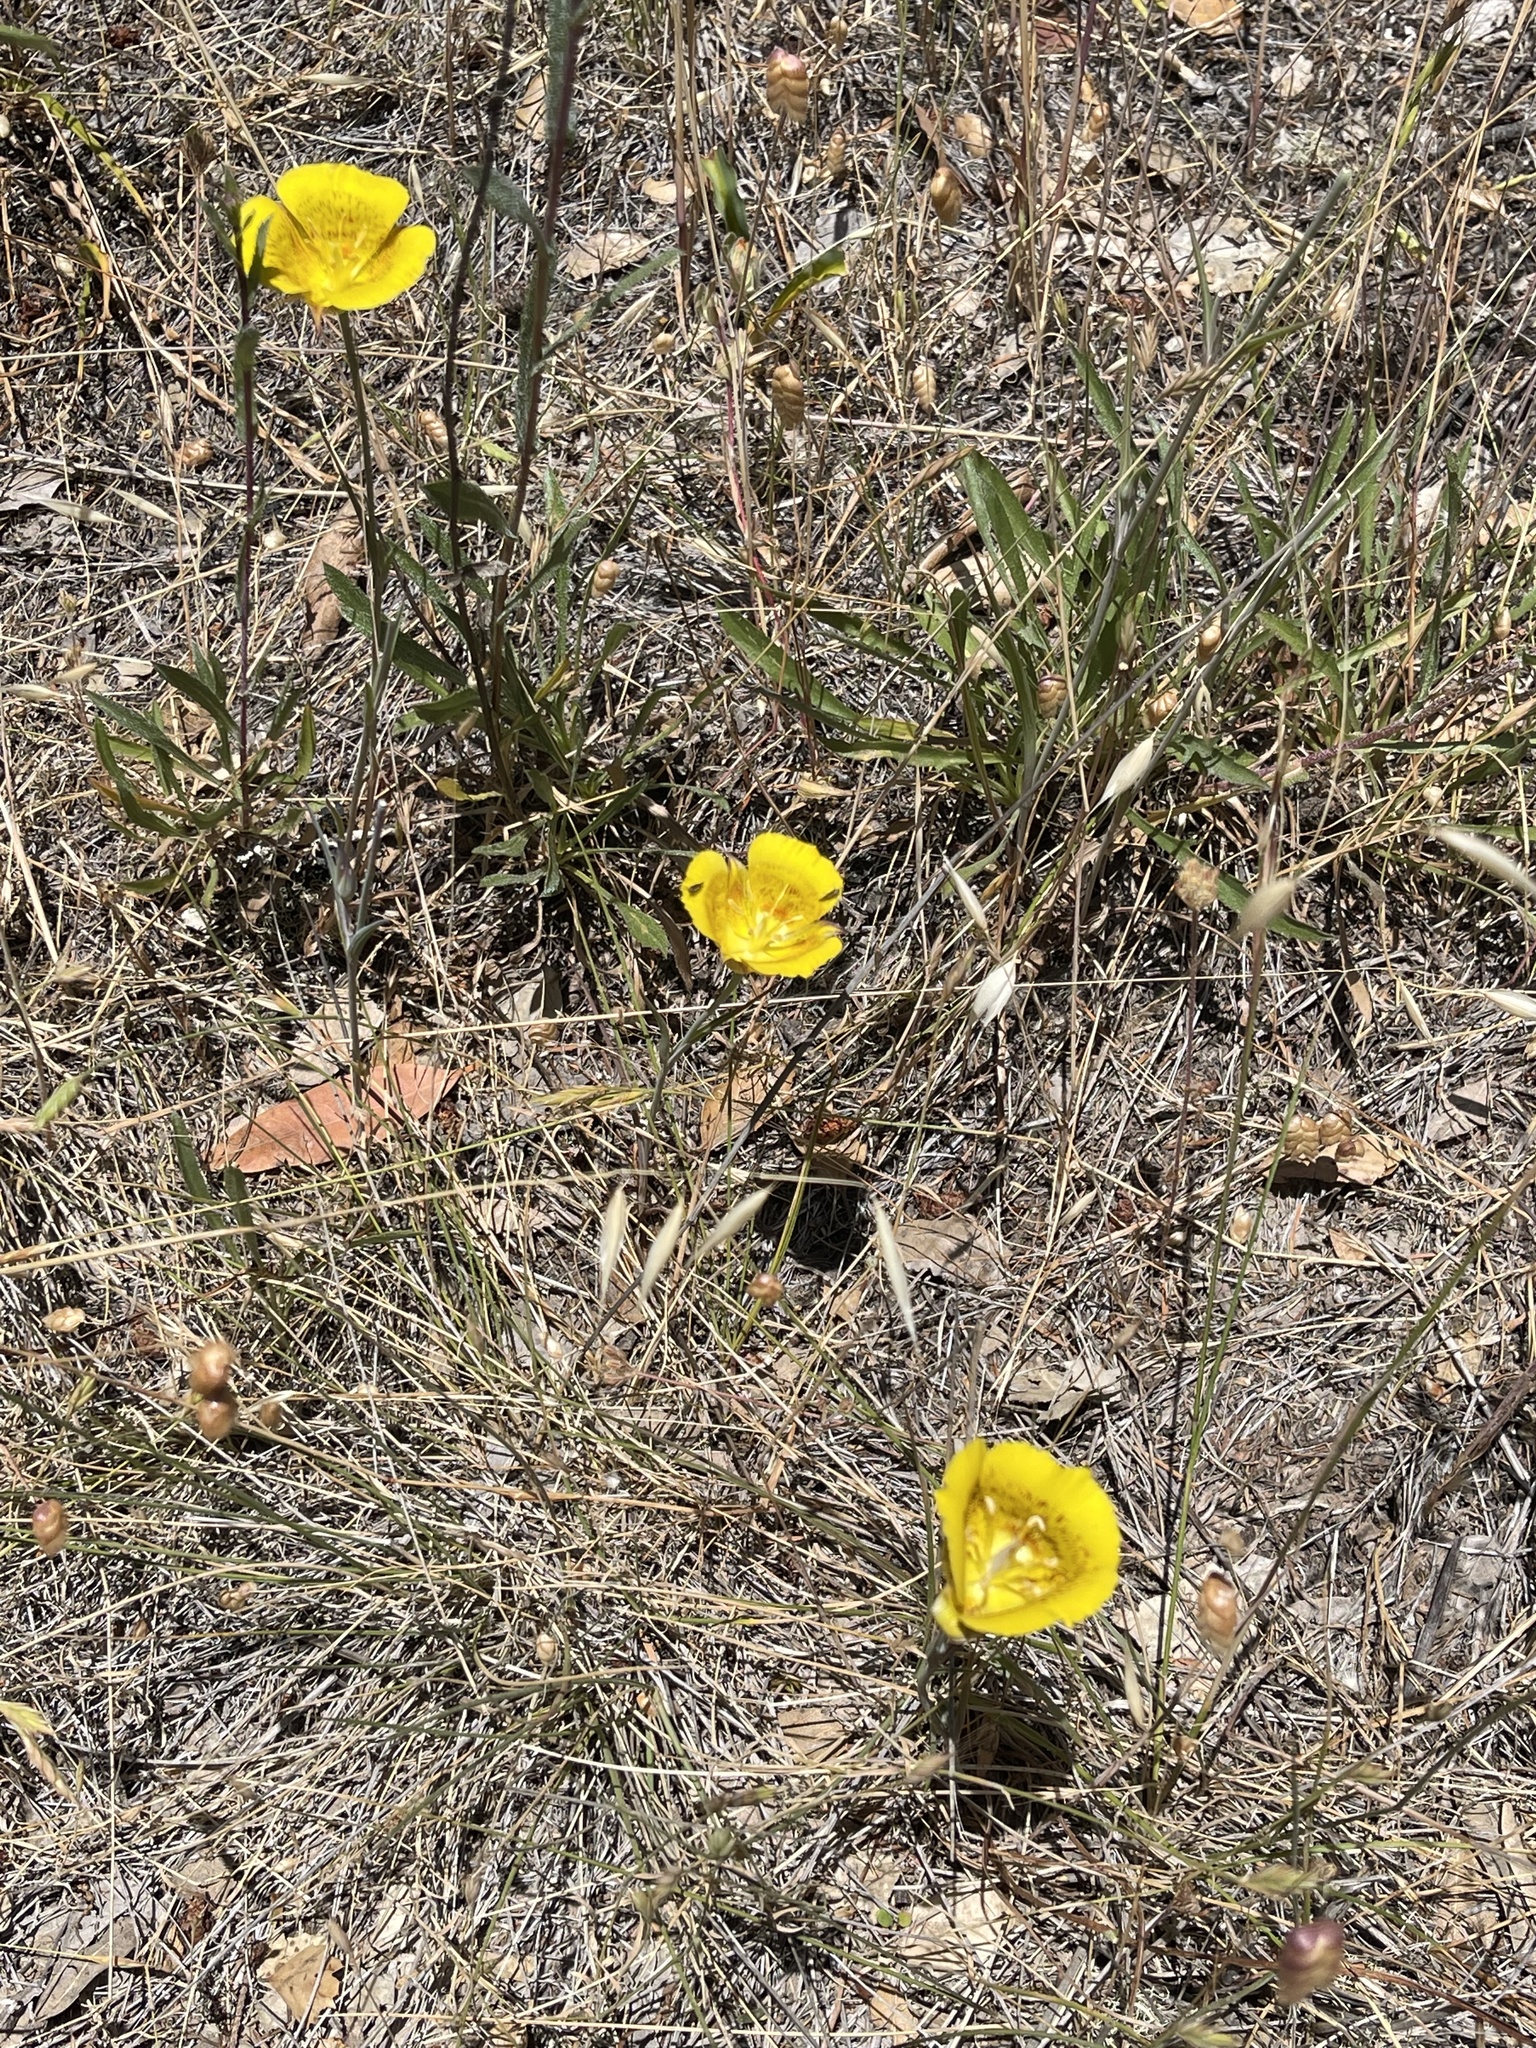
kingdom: Plantae
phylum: Tracheophyta
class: Liliopsida
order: Liliales
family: Liliaceae
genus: Calochortus
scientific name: Calochortus luteus
